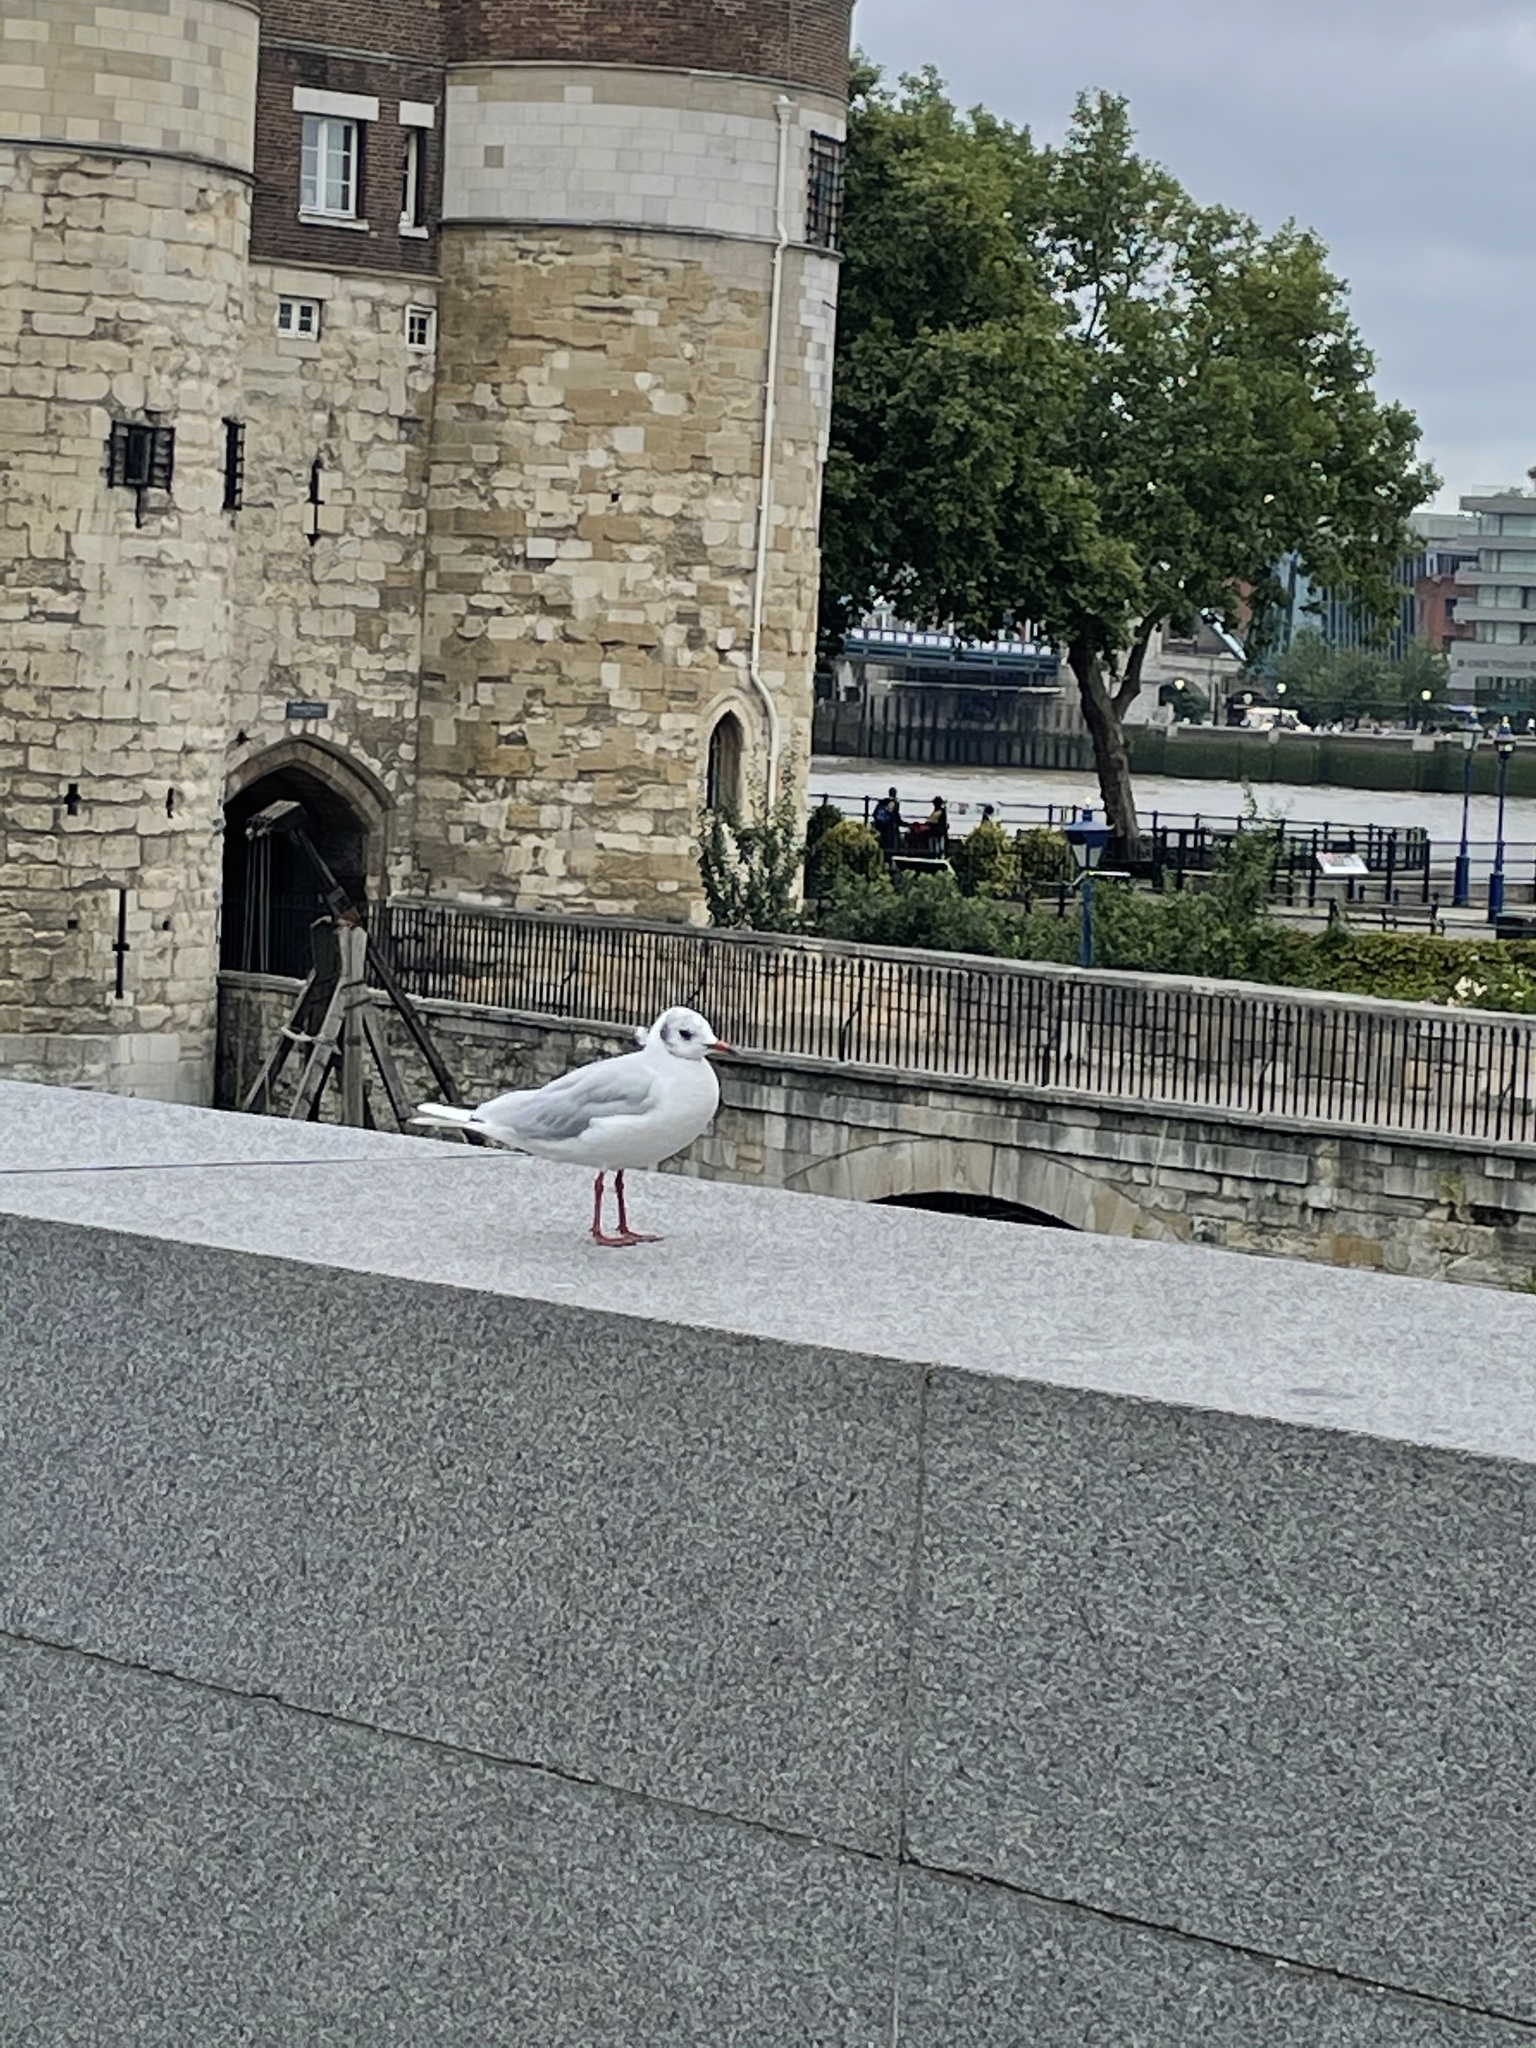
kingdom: Animalia
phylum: Chordata
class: Aves
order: Charadriiformes
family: Laridae
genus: Chroicocephalus
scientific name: Chroicocephalus ridibundus
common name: Black-headed gull
